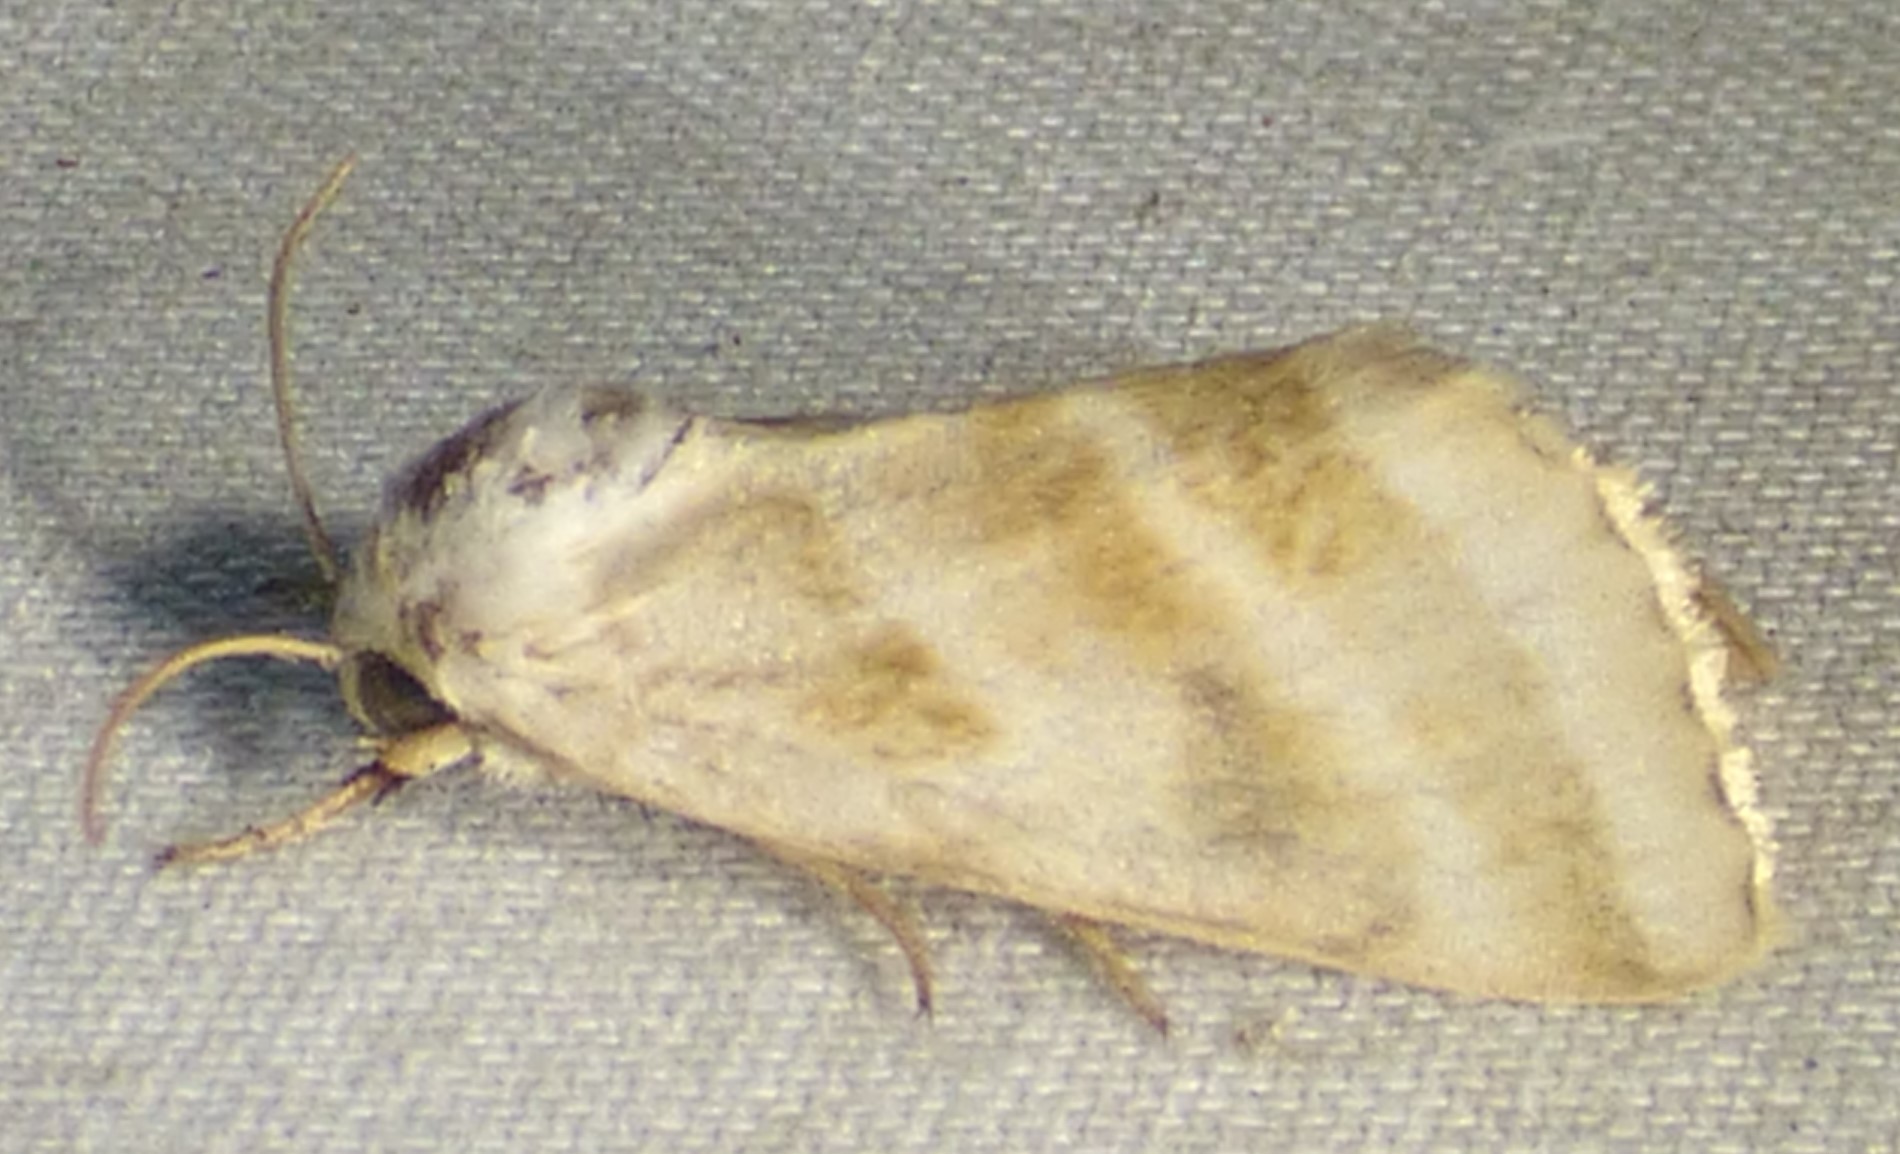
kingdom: Animalia
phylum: Arthropoda
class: Insecta
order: Lepidoptera
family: Noctuidae
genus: Schinia
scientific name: Schinia trifascia
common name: Three-lined flower moth
